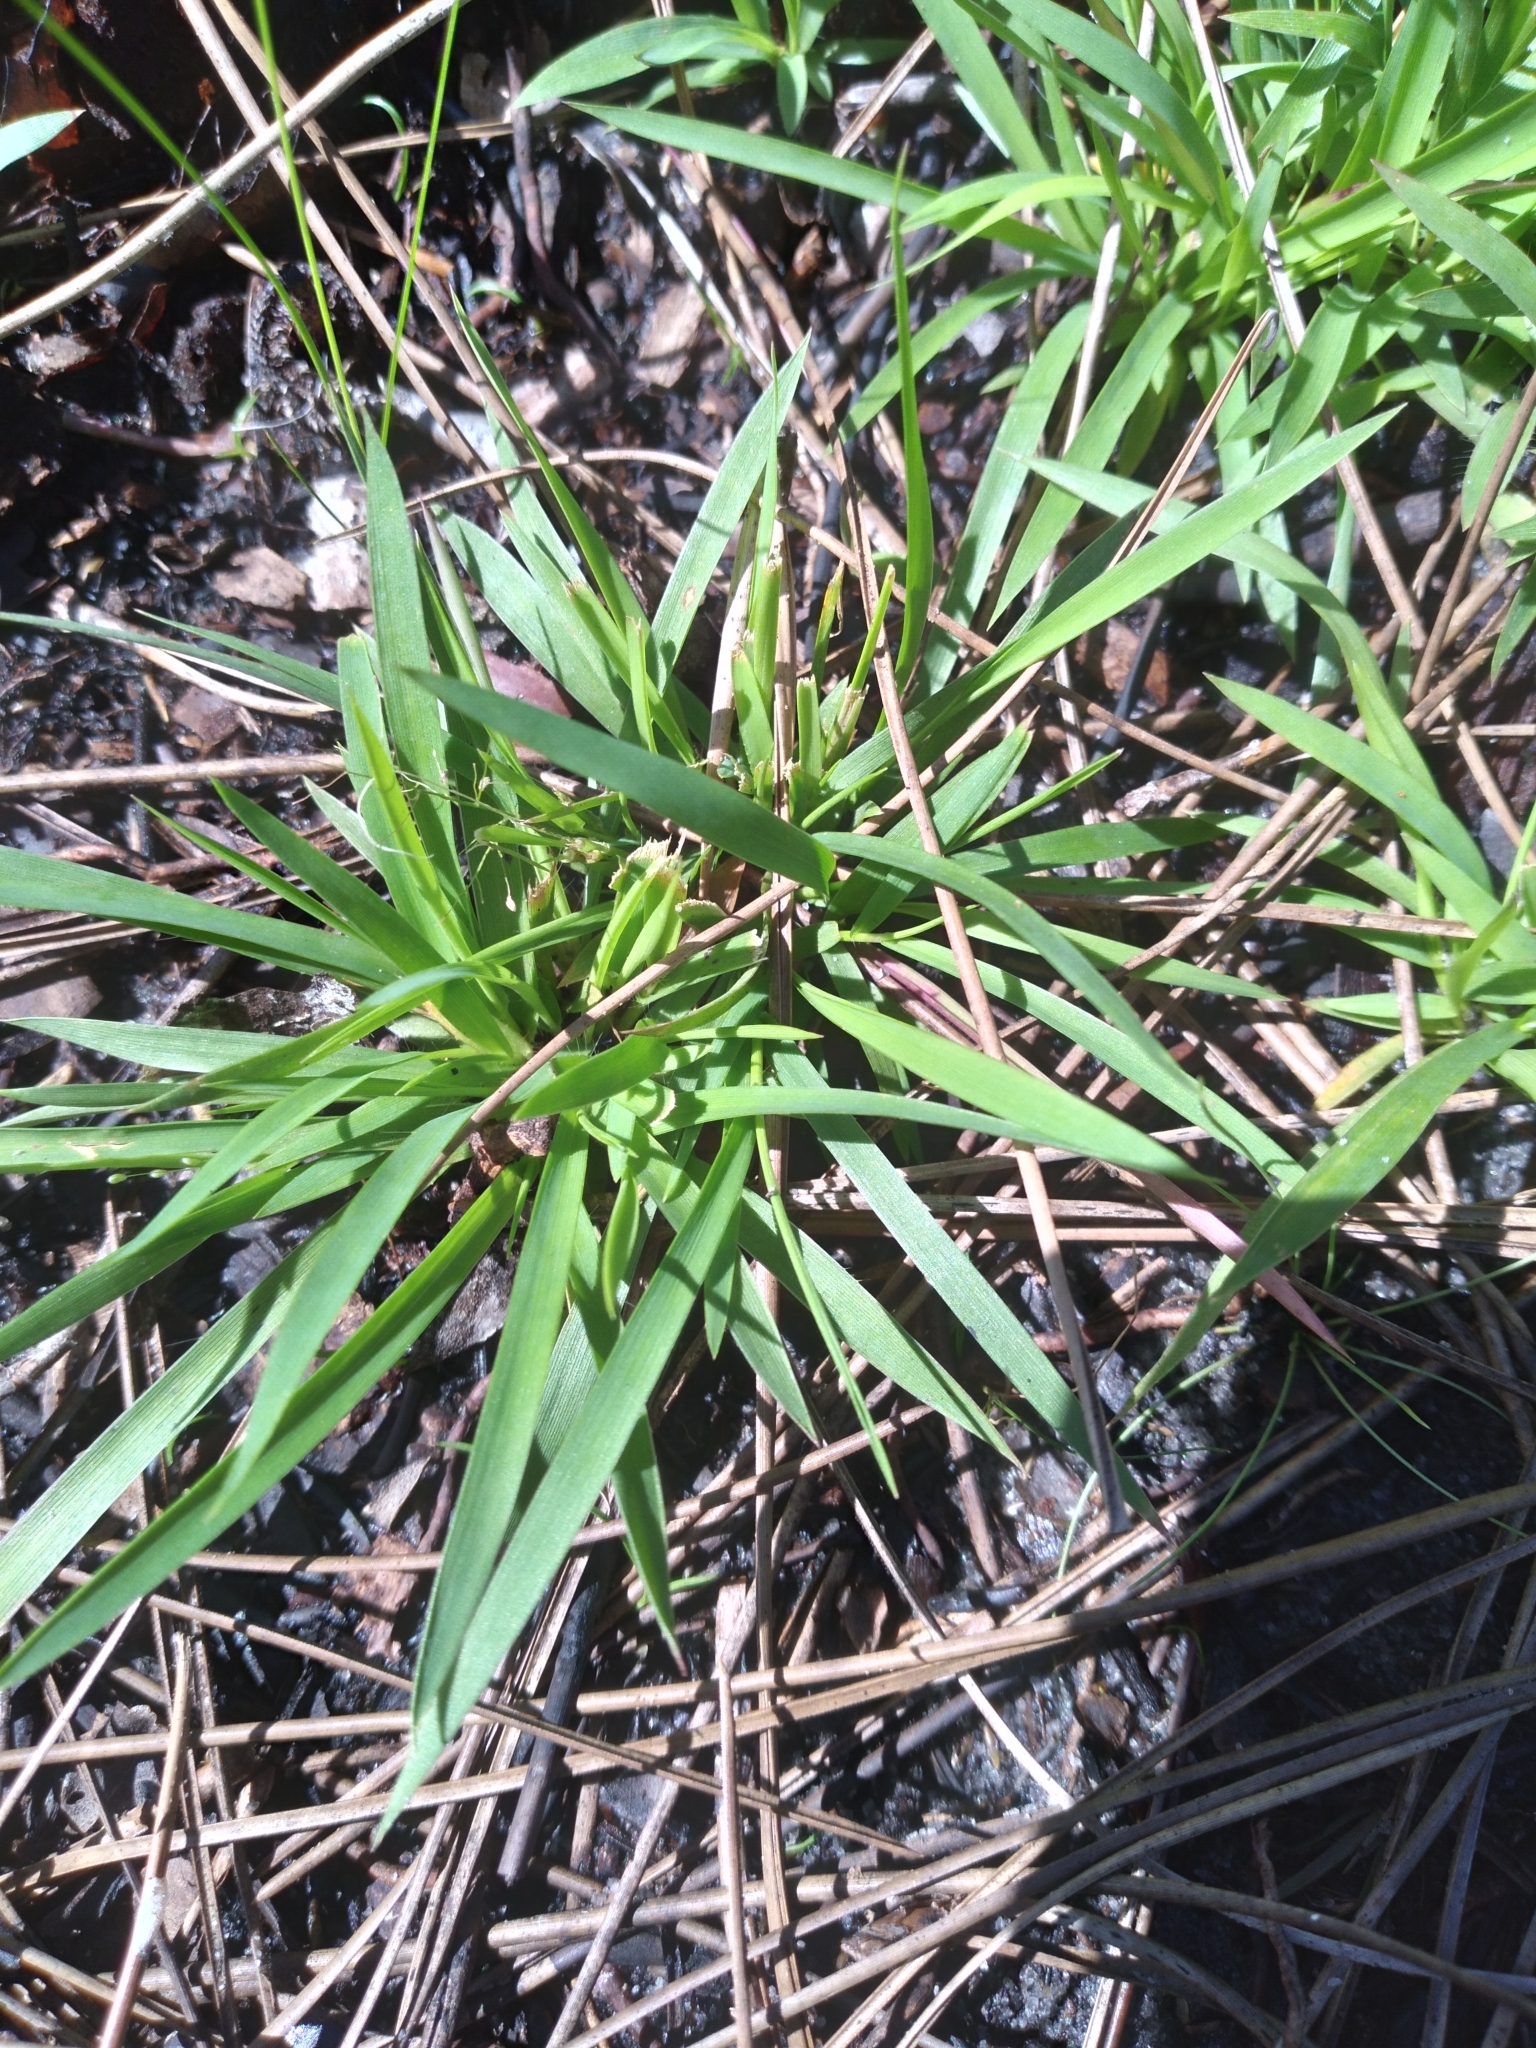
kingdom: Plantae
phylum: Tracheophyta
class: Liliopsida
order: Poales
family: Poaceae
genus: Dichanthelium
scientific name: Dichanthelium ensifolium
